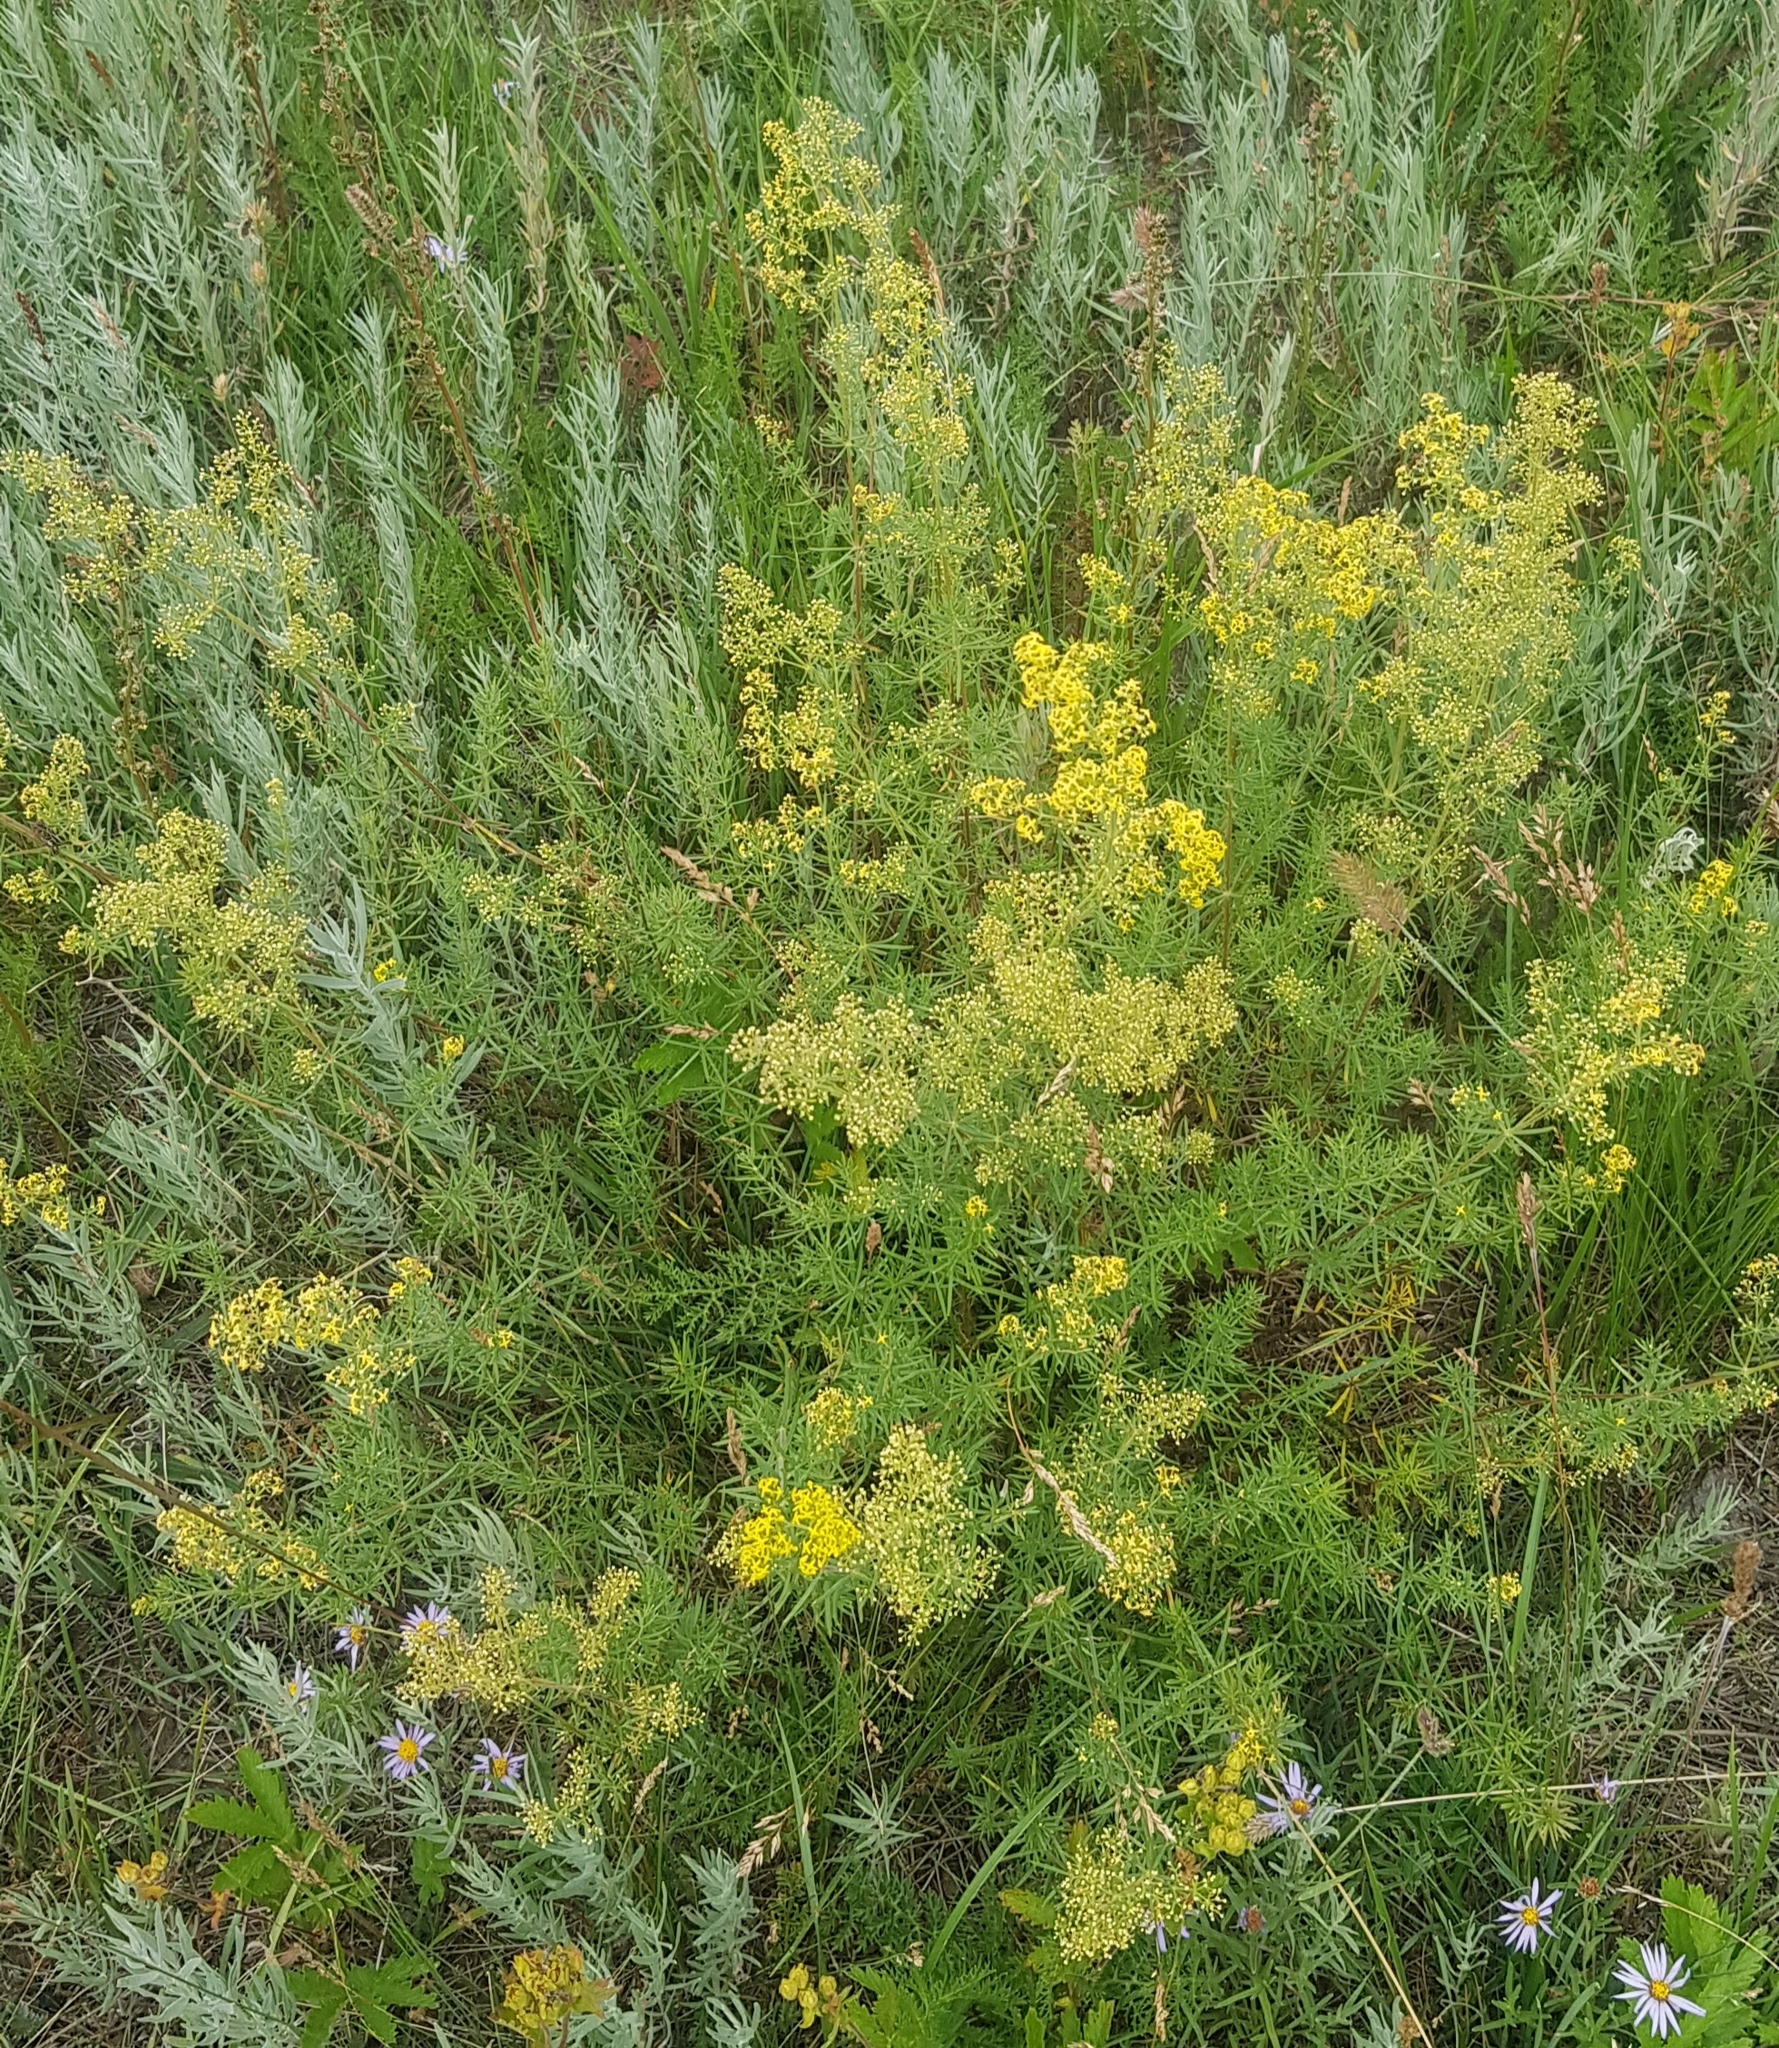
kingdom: Plantae
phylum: Tracheophyta
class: Magnoliopsida
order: Gentianales
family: Rubiaceae
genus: Galium
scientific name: Galium verum
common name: Lady's bedstraw
